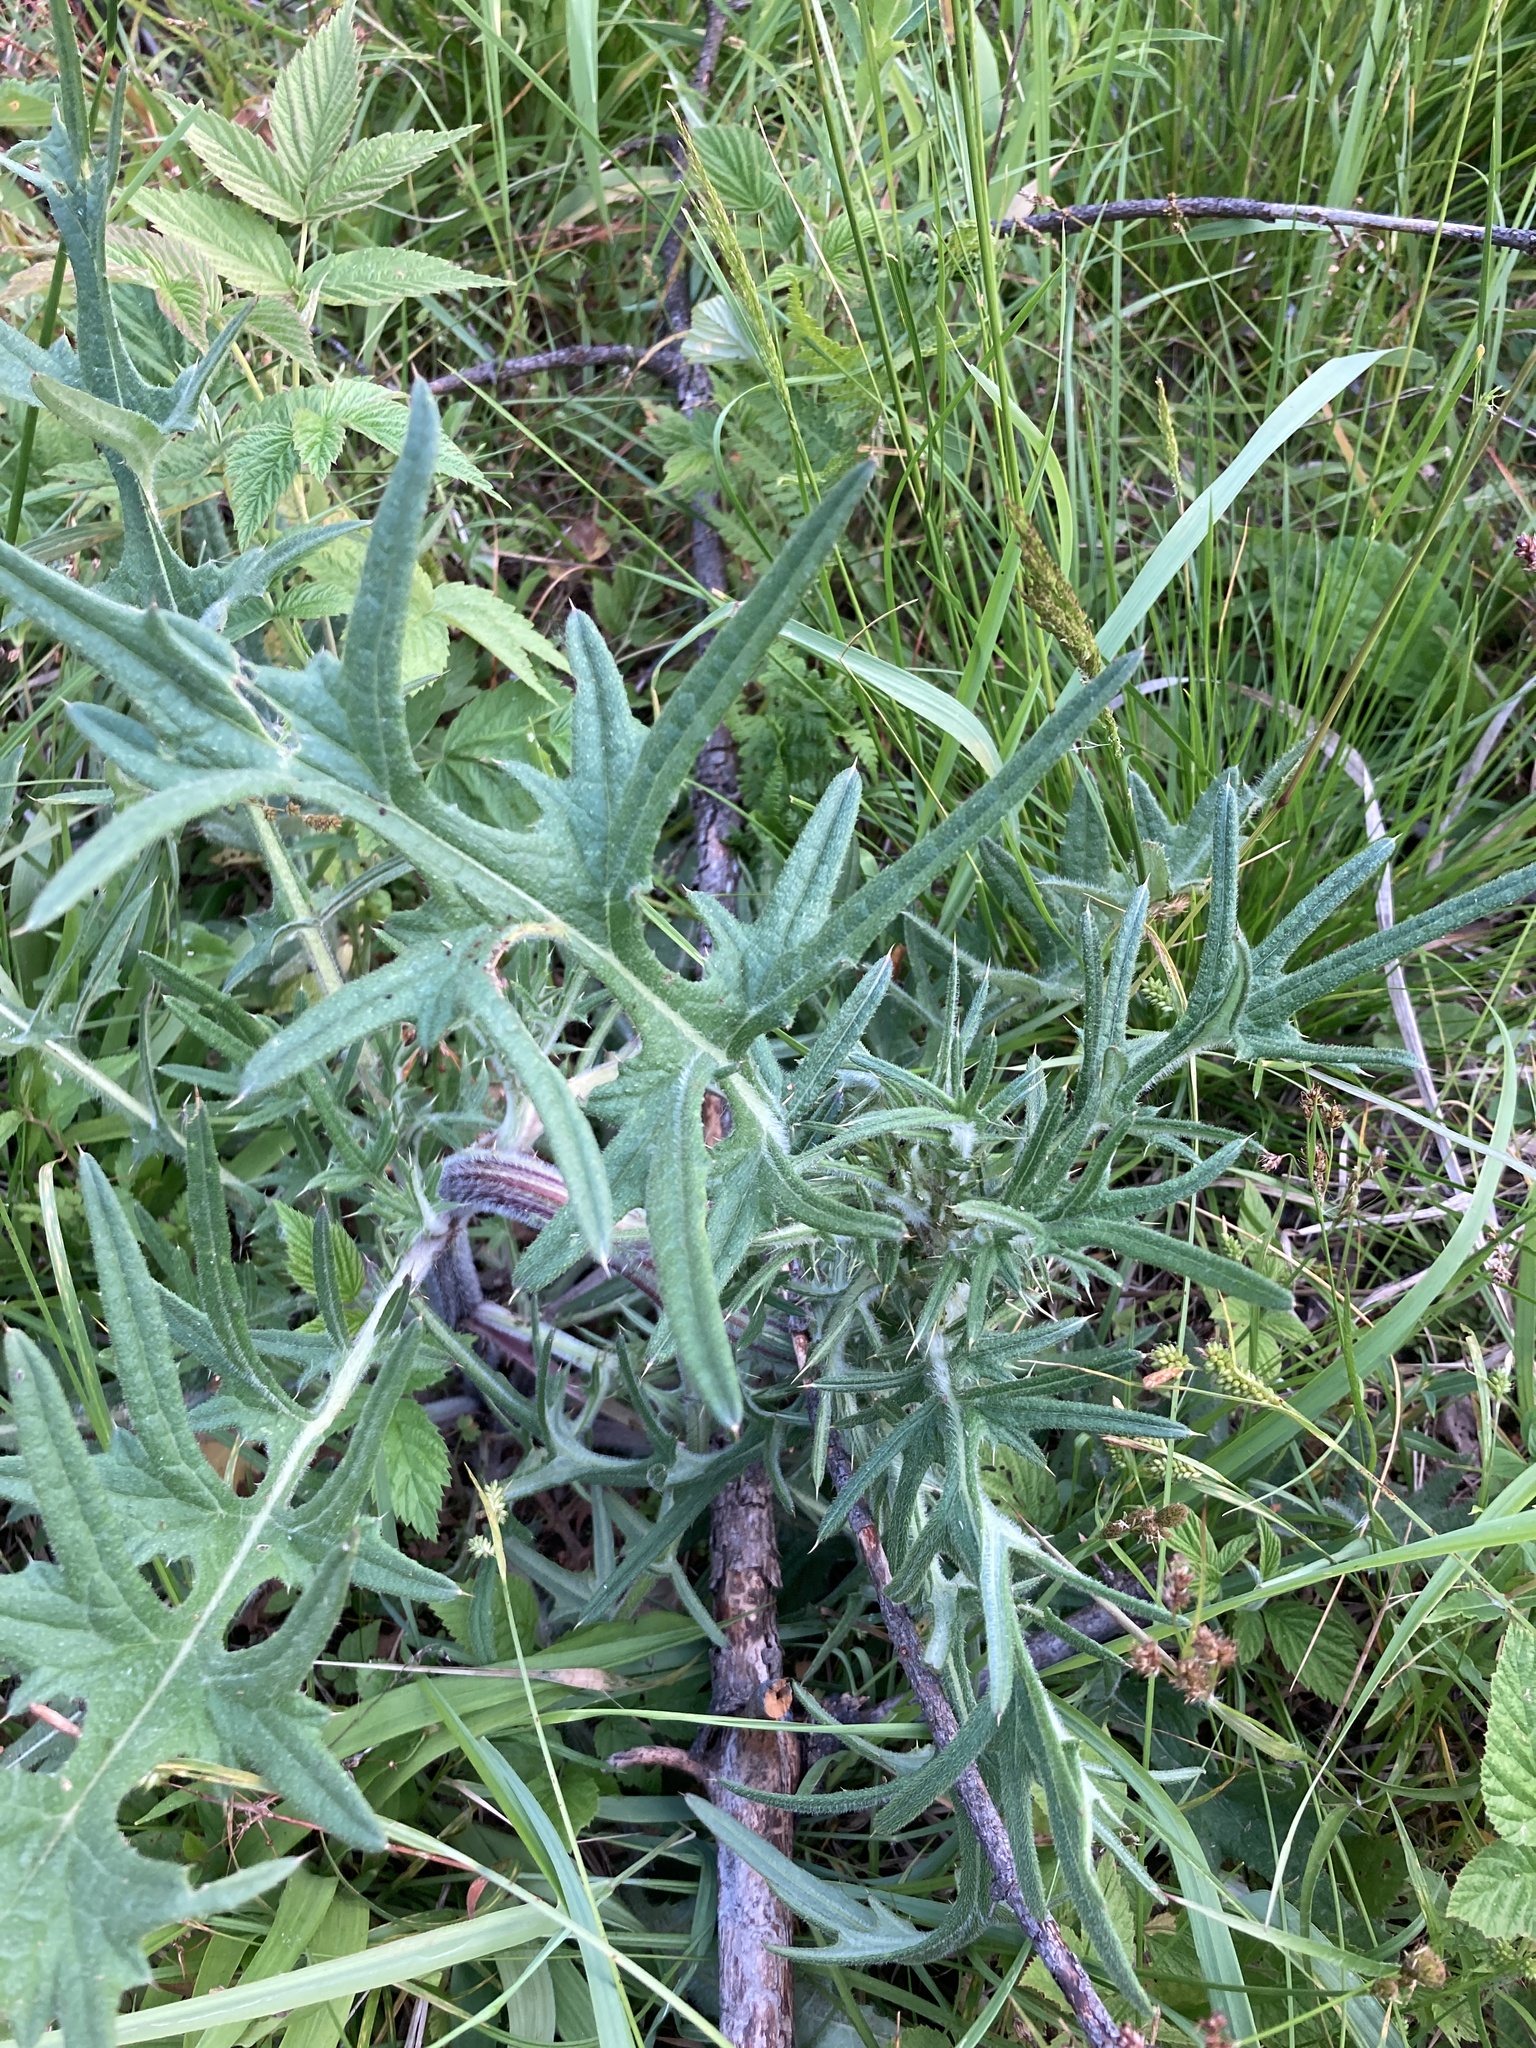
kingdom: Plantae
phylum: Tracheophyta
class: Magnoliopsida
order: Asterales
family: Asteraceae
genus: Cirsium
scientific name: Cirsium vulgare
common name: Bull thistle
